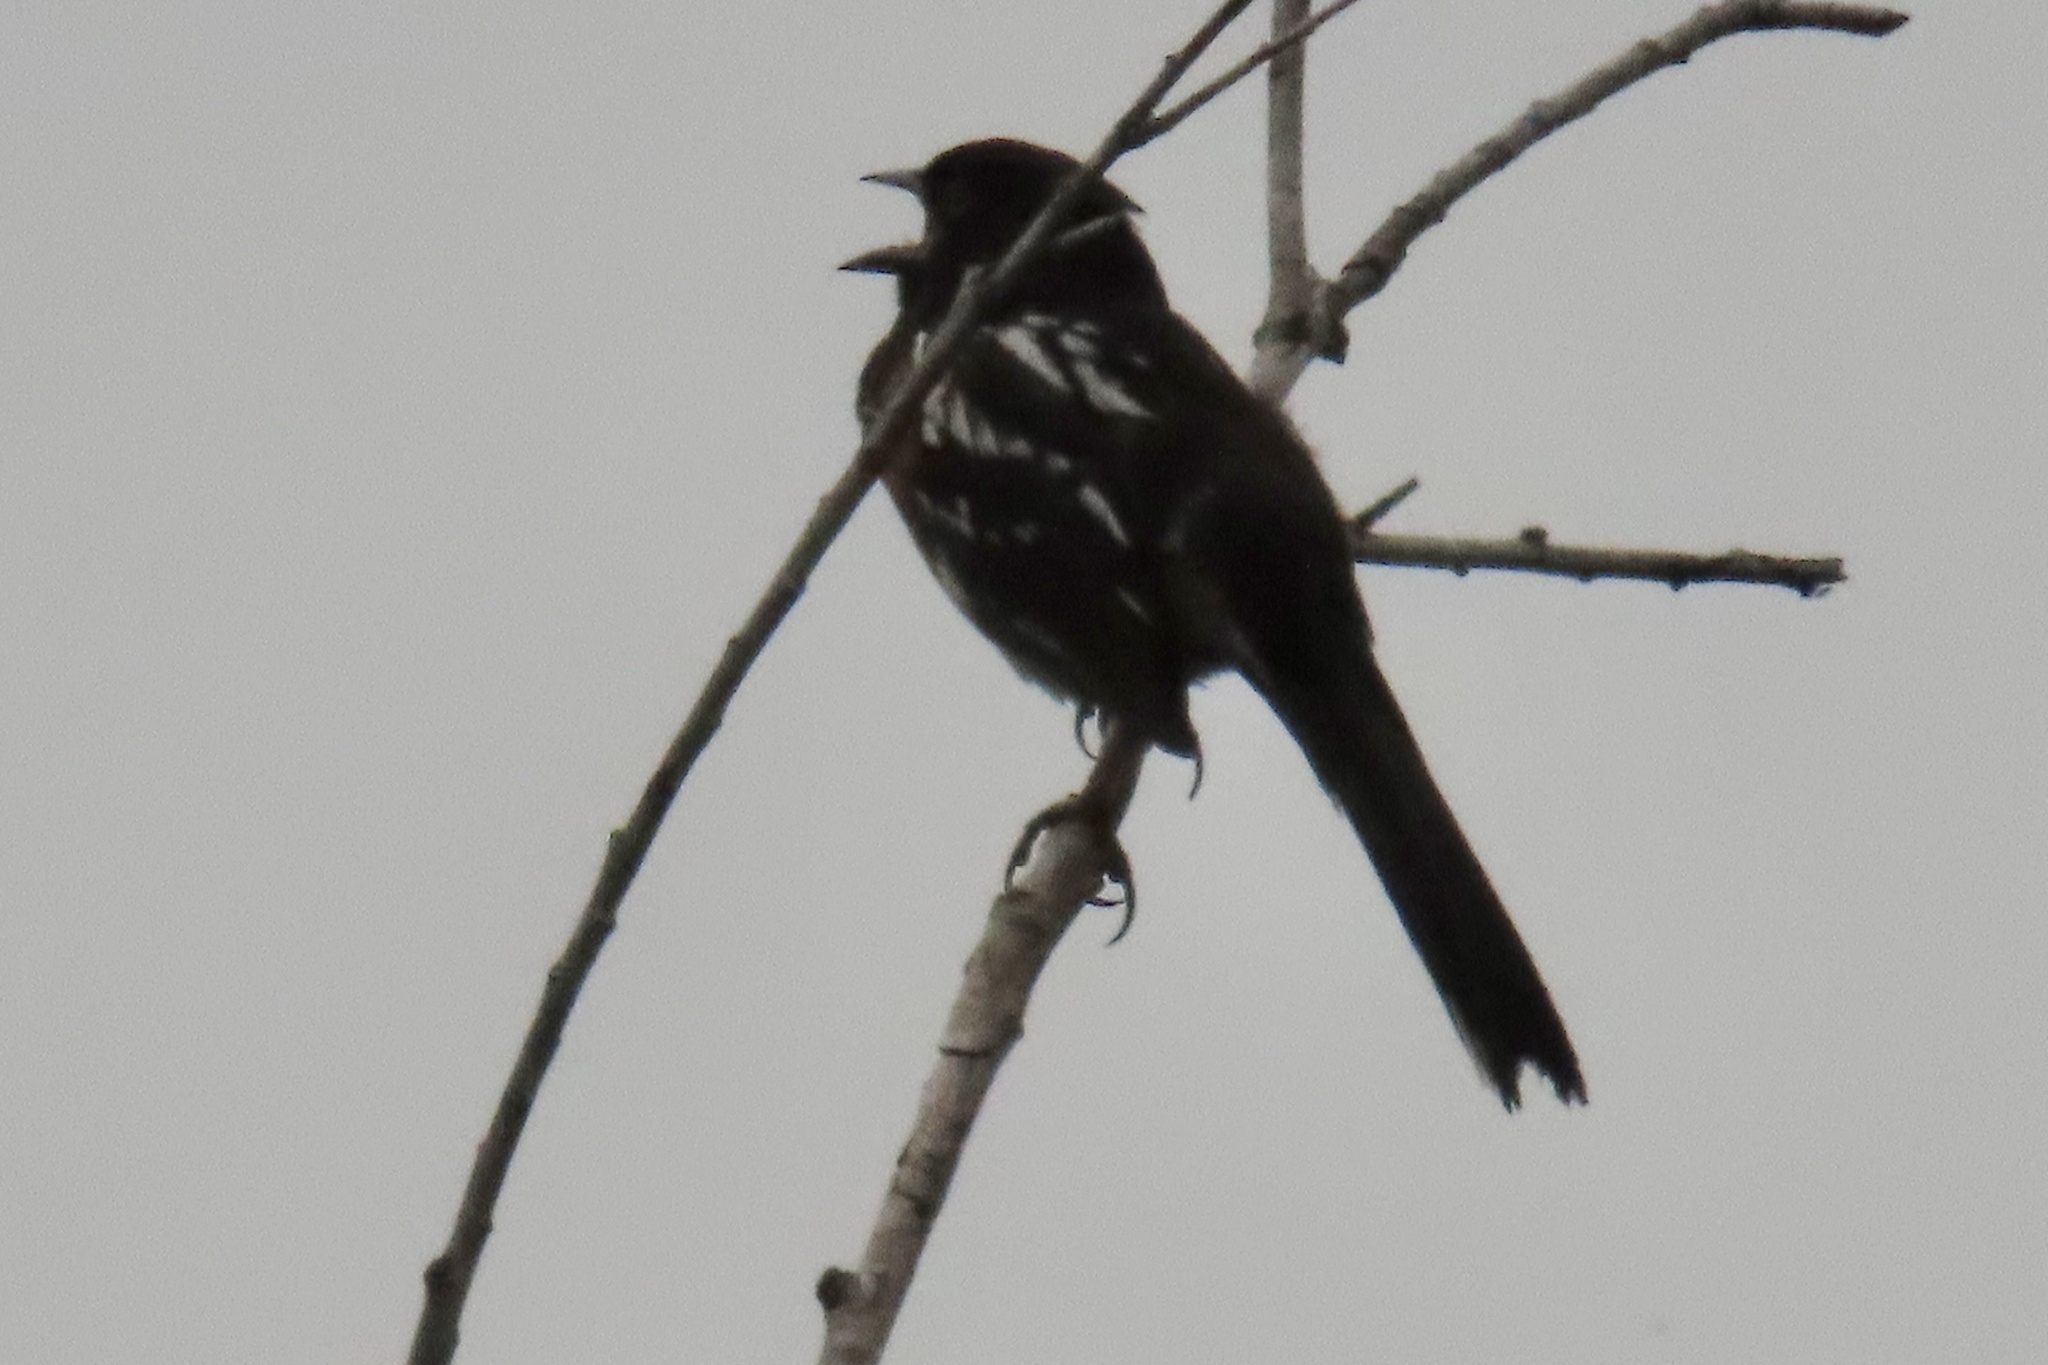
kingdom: Animalia
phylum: Chordata
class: Aves
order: Passeriformes
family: Passerellidae
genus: Pipilo
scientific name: Pipilo maculatus
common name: Spotted towhee
